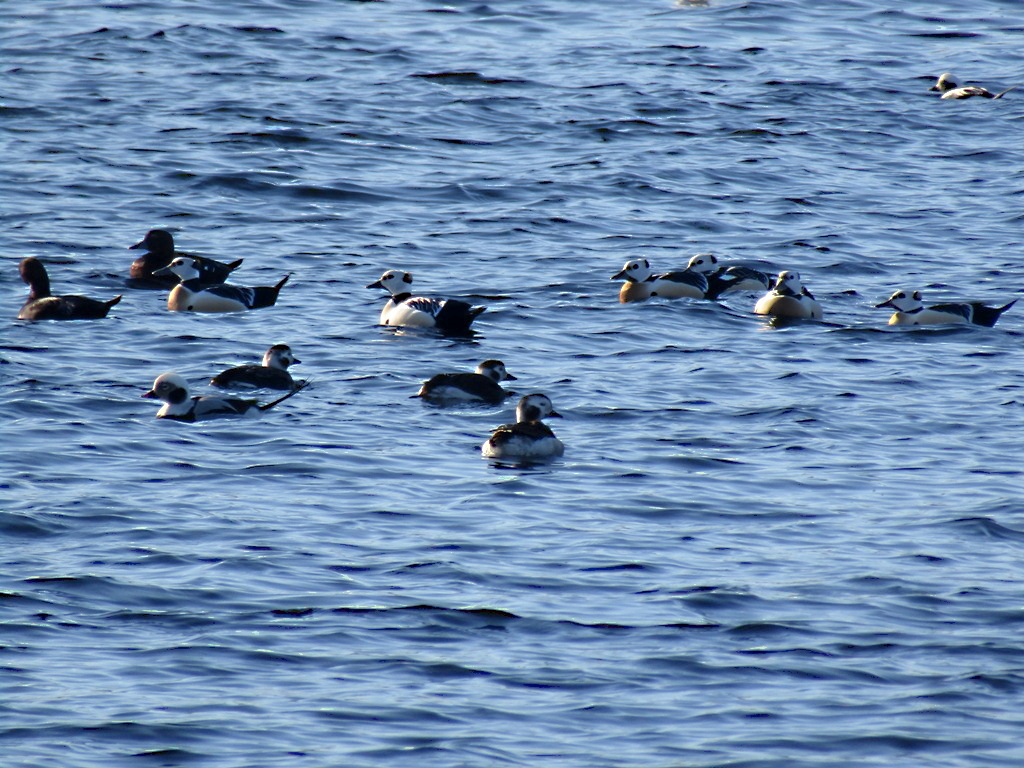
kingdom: Animalia
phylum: Chordata
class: Aves
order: Anseriformes
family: Anatidae
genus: Clangula
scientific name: Clangula hyemalis
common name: Long-tailed duck
